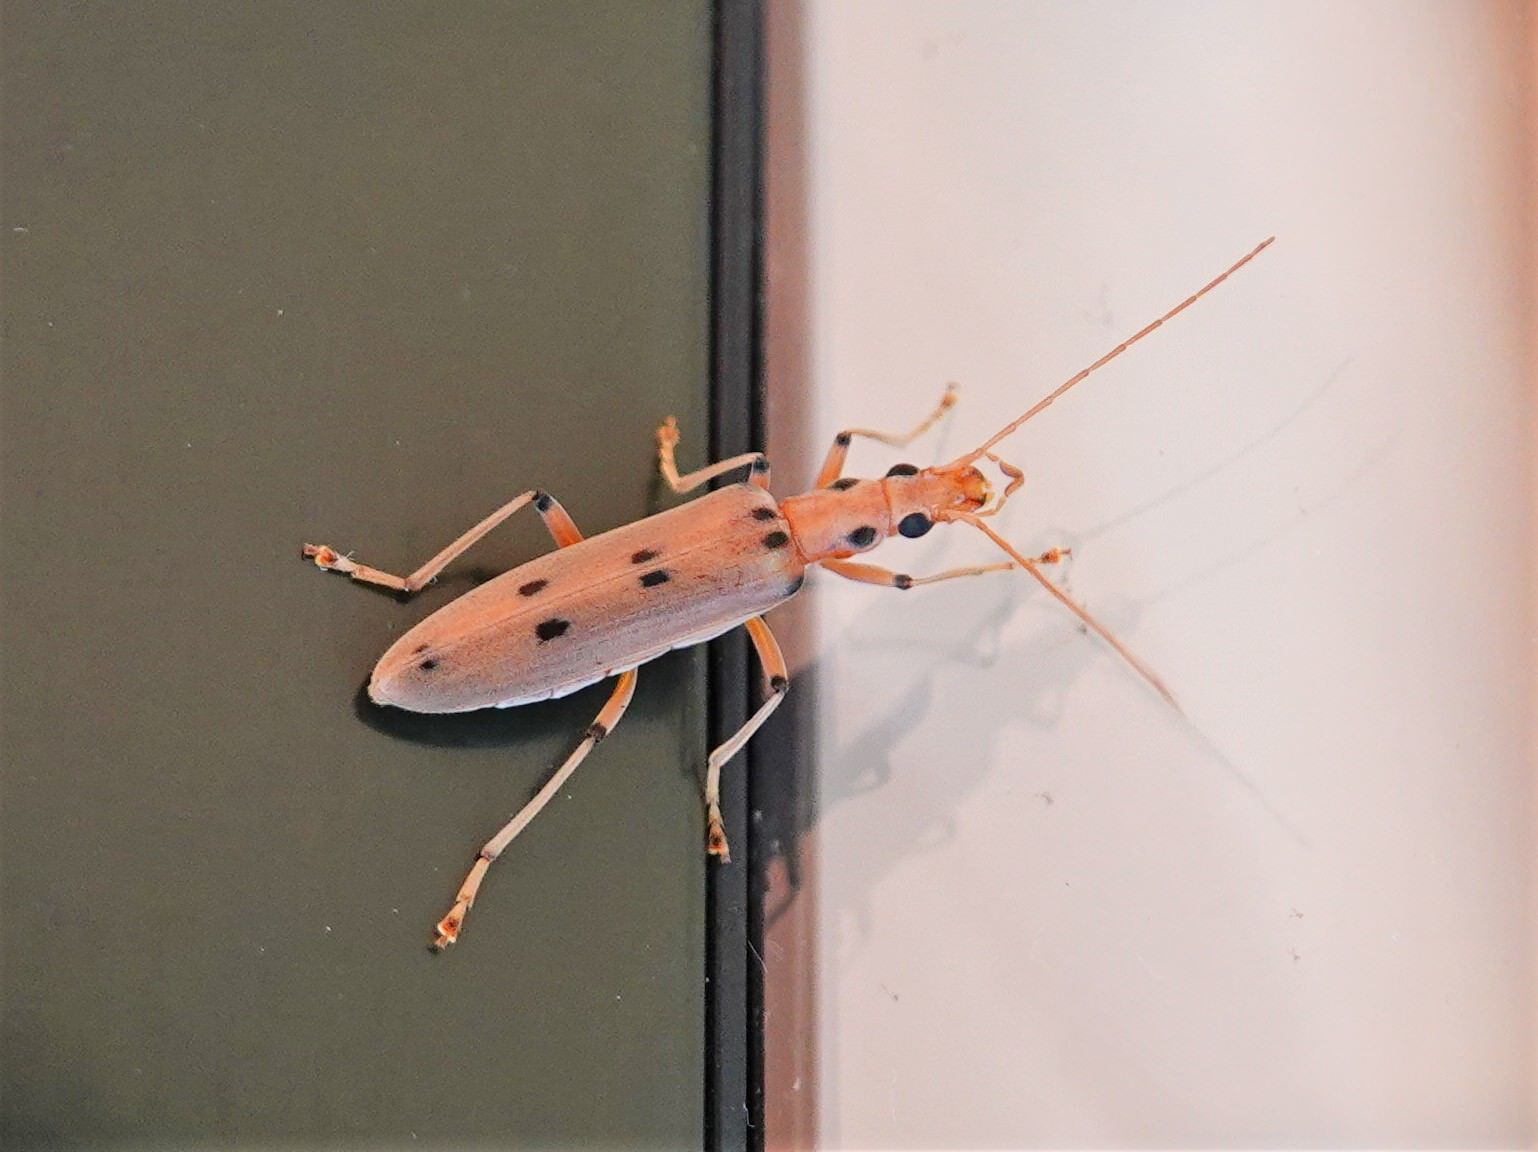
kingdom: Animalia
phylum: Arthropoda
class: Insecta
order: Coleoptera
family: Oedemeridae
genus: Parisopalpus
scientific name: Parisopalpus
